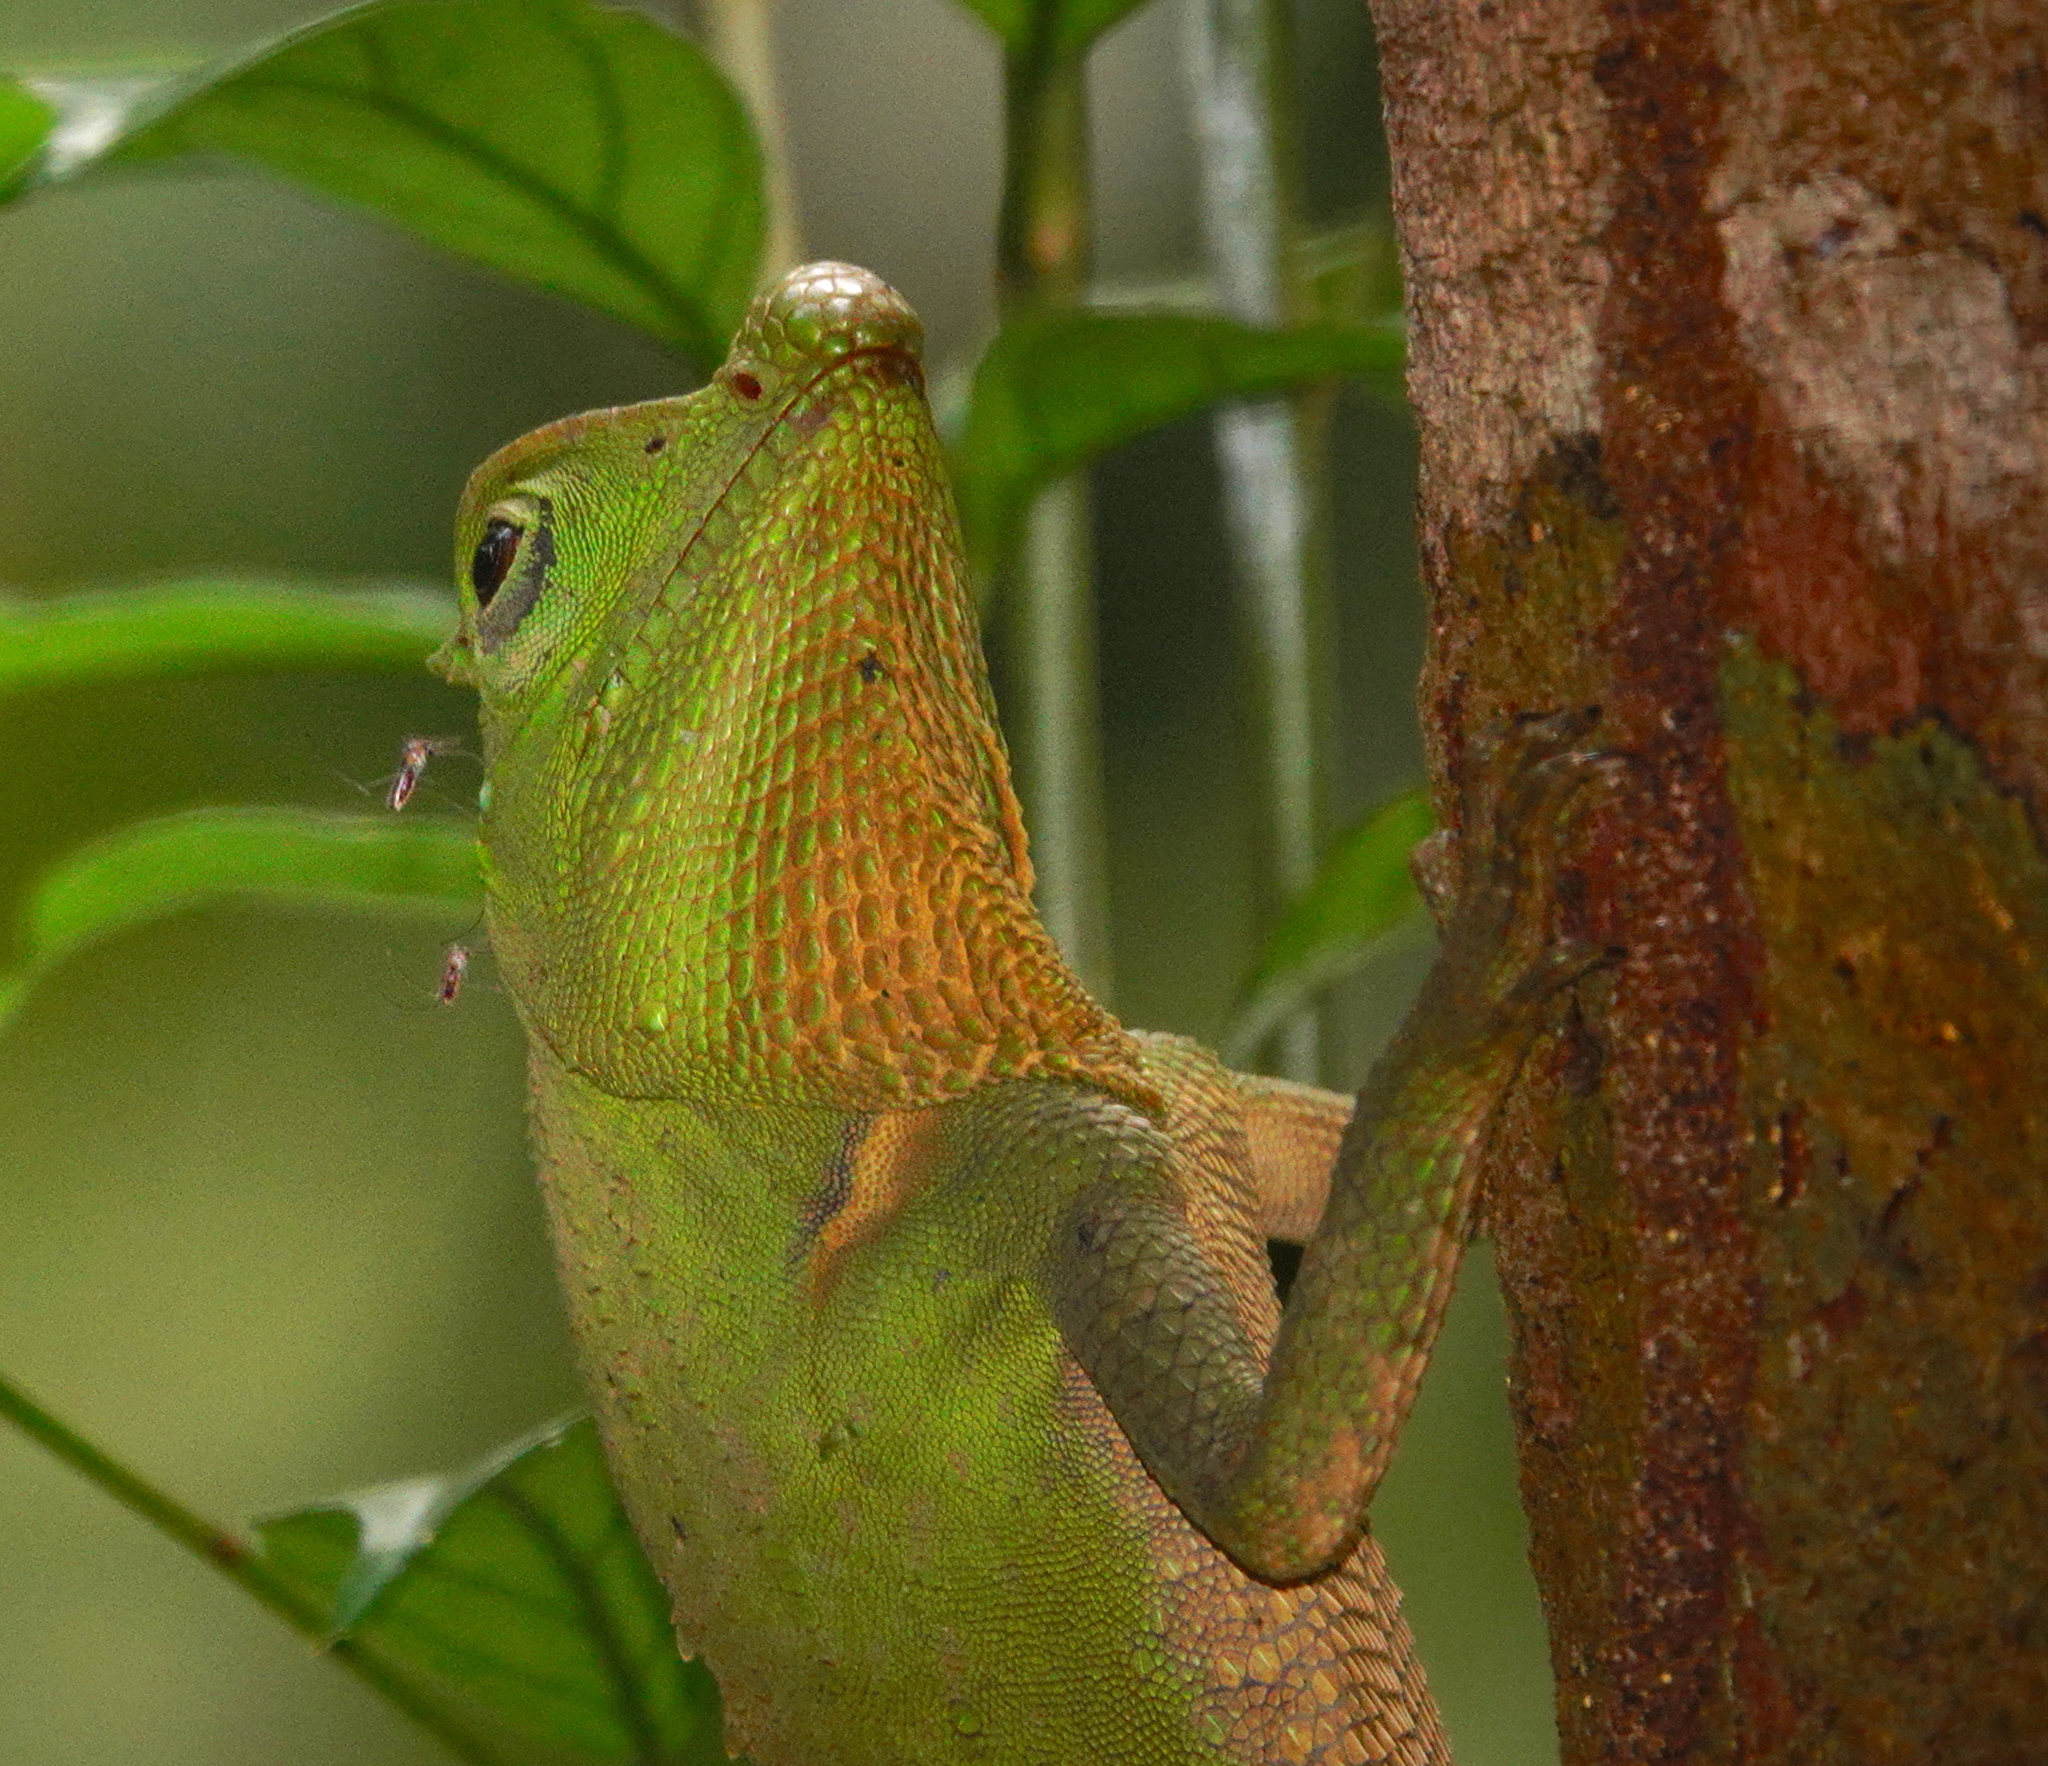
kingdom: Animalia
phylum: Chordata
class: Squamata
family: Agamidae
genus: Lyriocephalus
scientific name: Lyriocephalus scutatus
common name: Hump snout lizard
